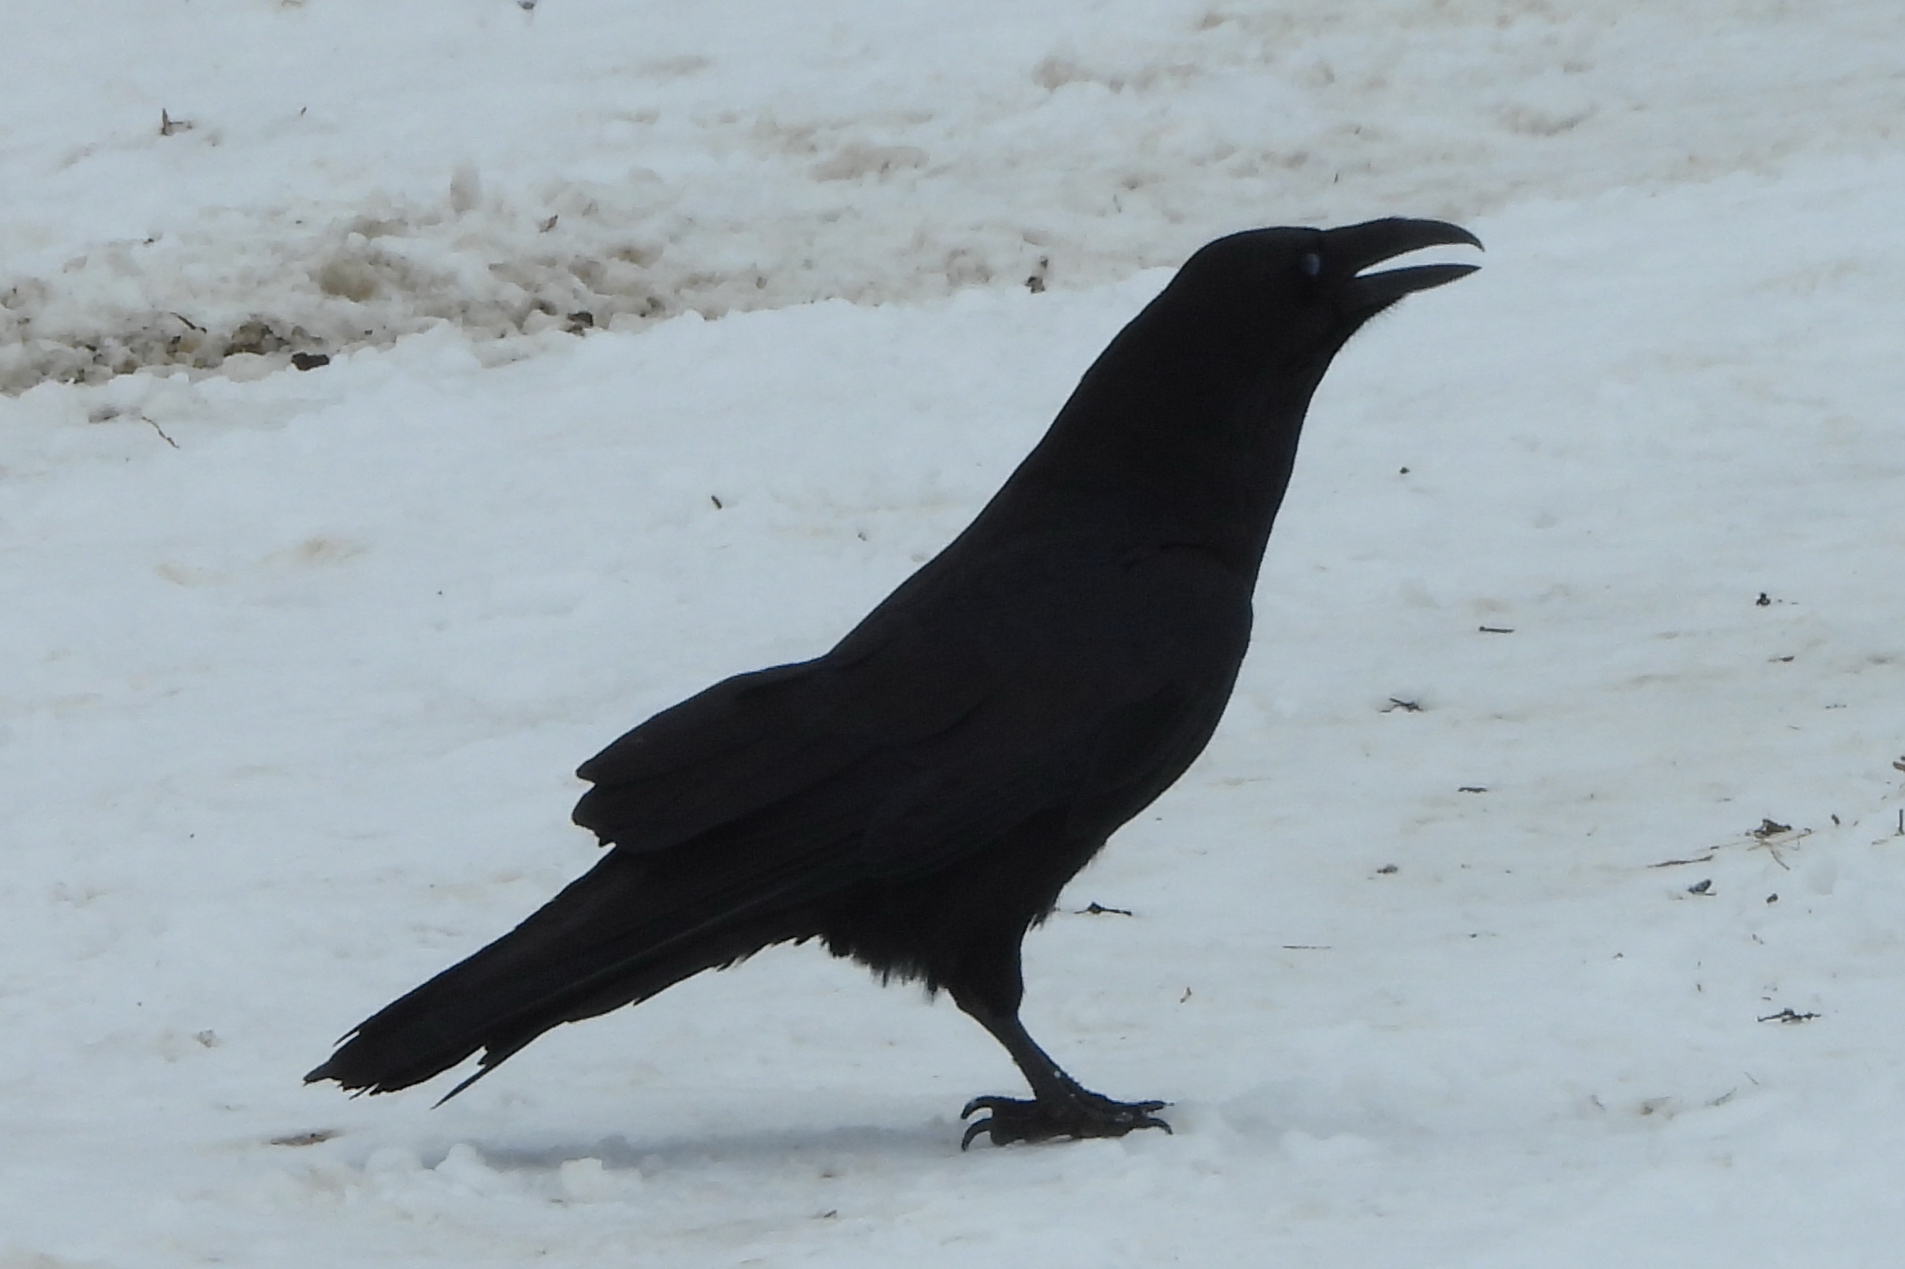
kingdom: Animalia
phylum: Chordata
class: Aves
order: Passeriformes
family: Corvidae
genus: Corvus
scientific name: Corvus corax
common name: Common raven
